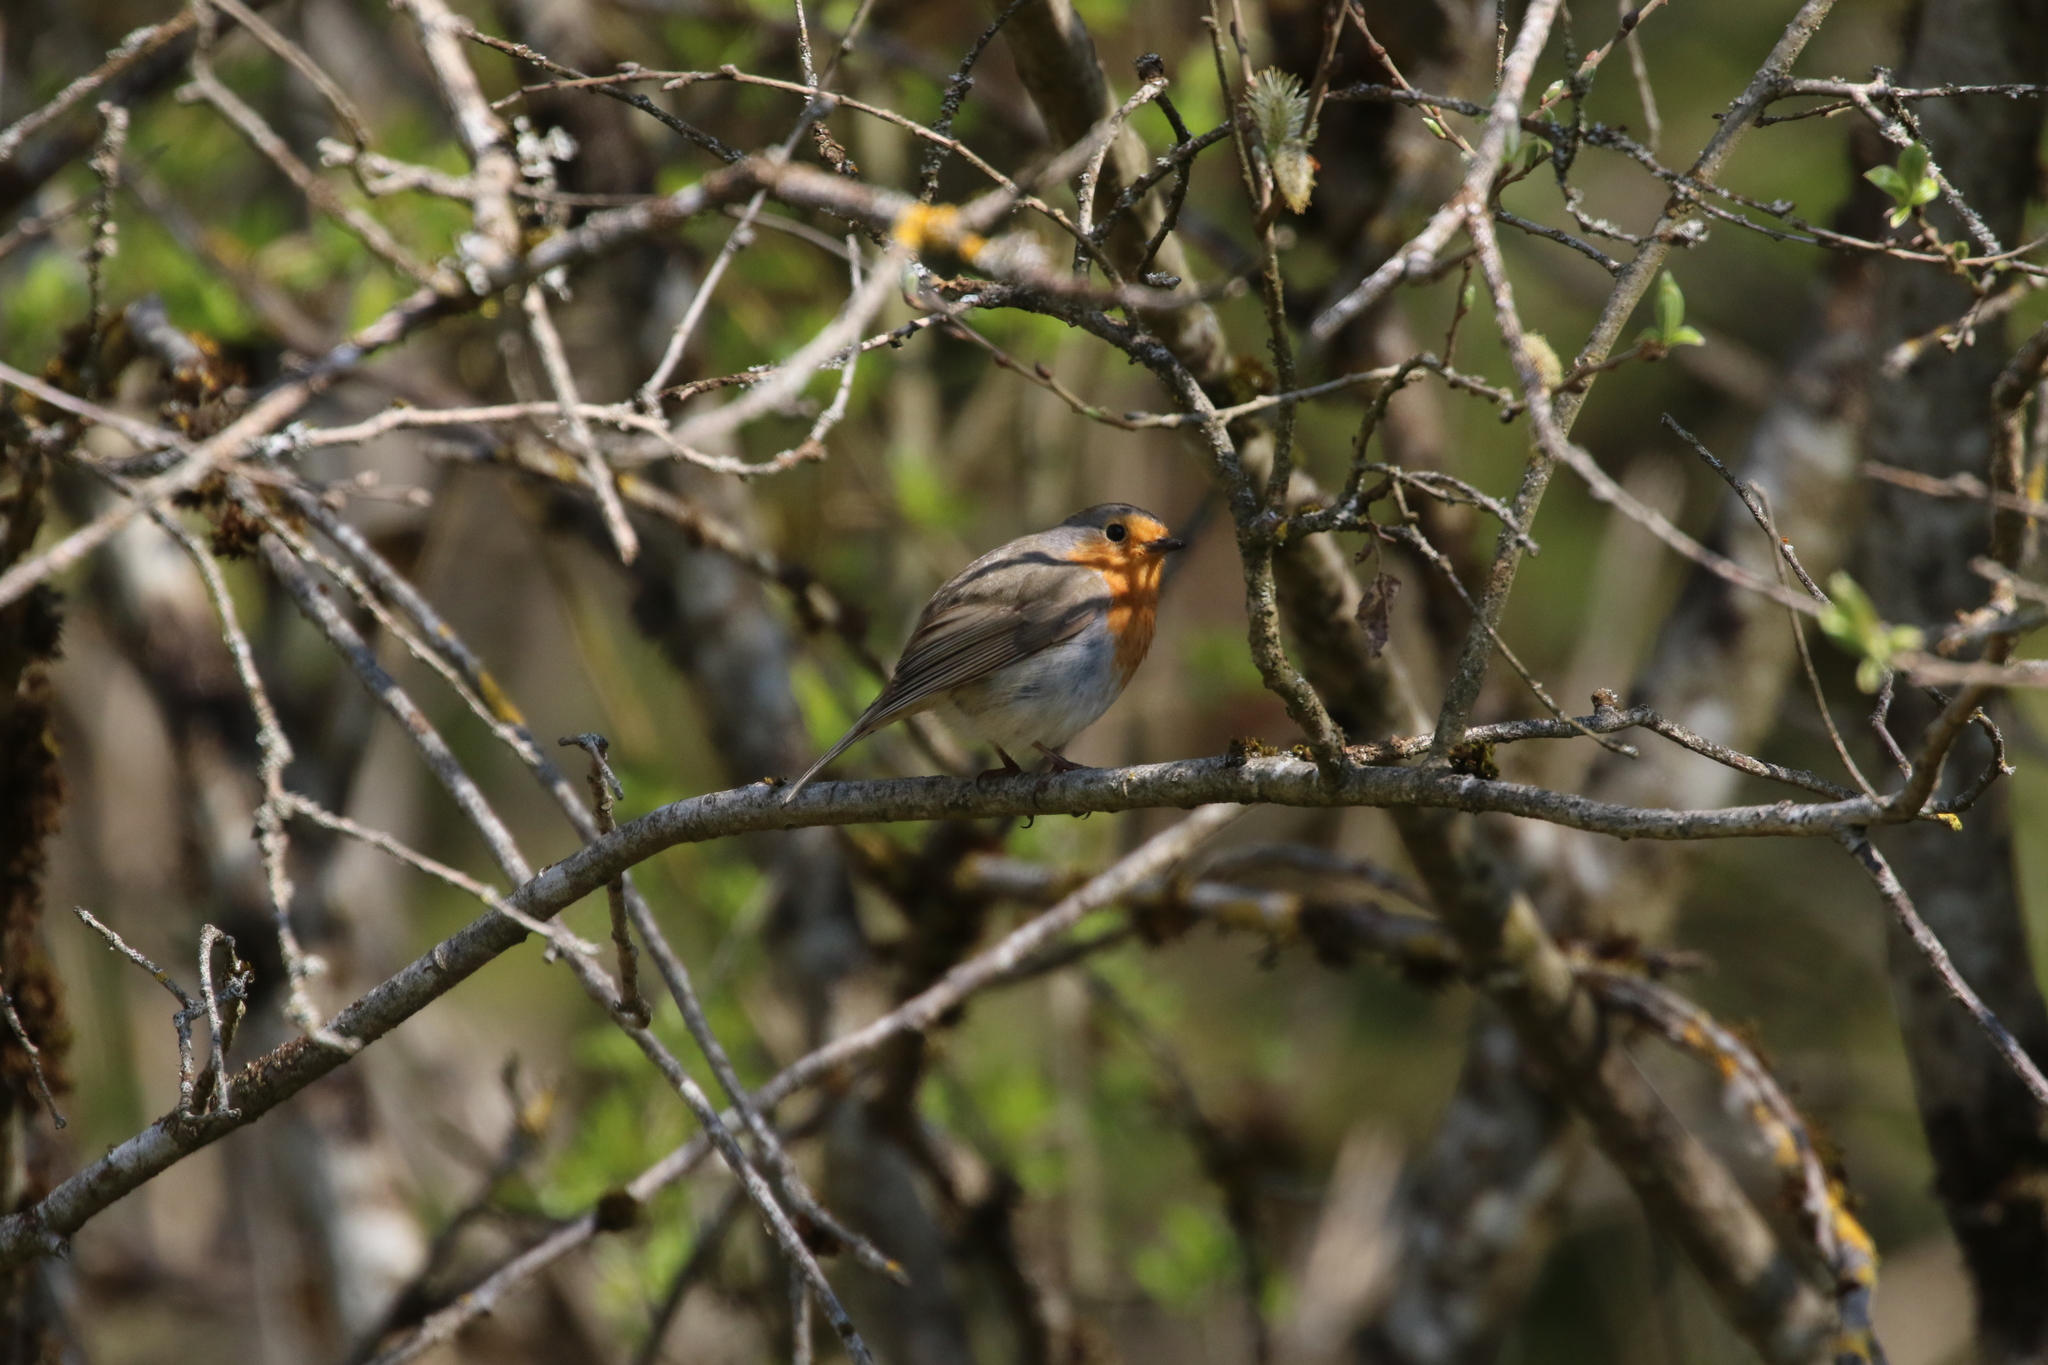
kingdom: Animalia
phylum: Chordata
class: Aves
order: Passeriformes
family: Muscicapidae
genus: Erithacus
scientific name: Erithacus rubecula
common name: European robin
